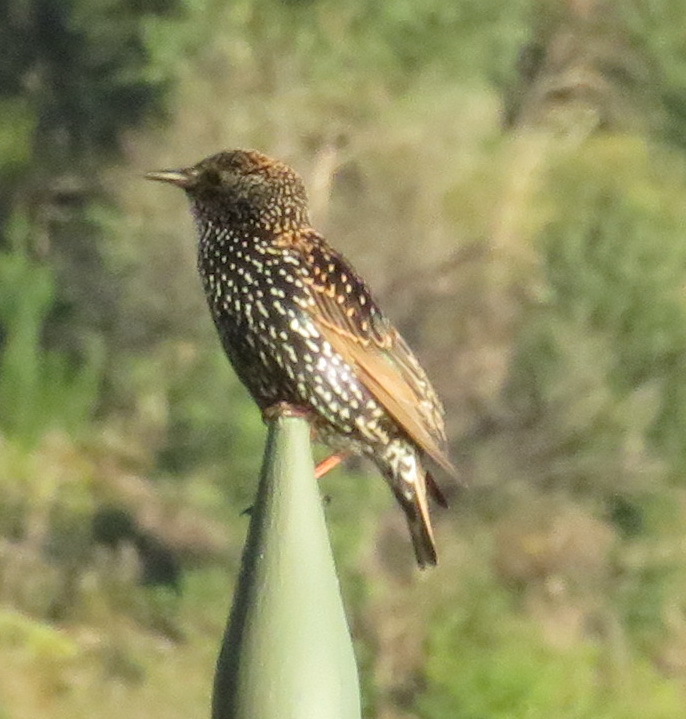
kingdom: Animalia
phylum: Chordata
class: Aves
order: Passeriformes
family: Sturnidae
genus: Sturnus
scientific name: Sturnus vulgaris
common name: Common starling
